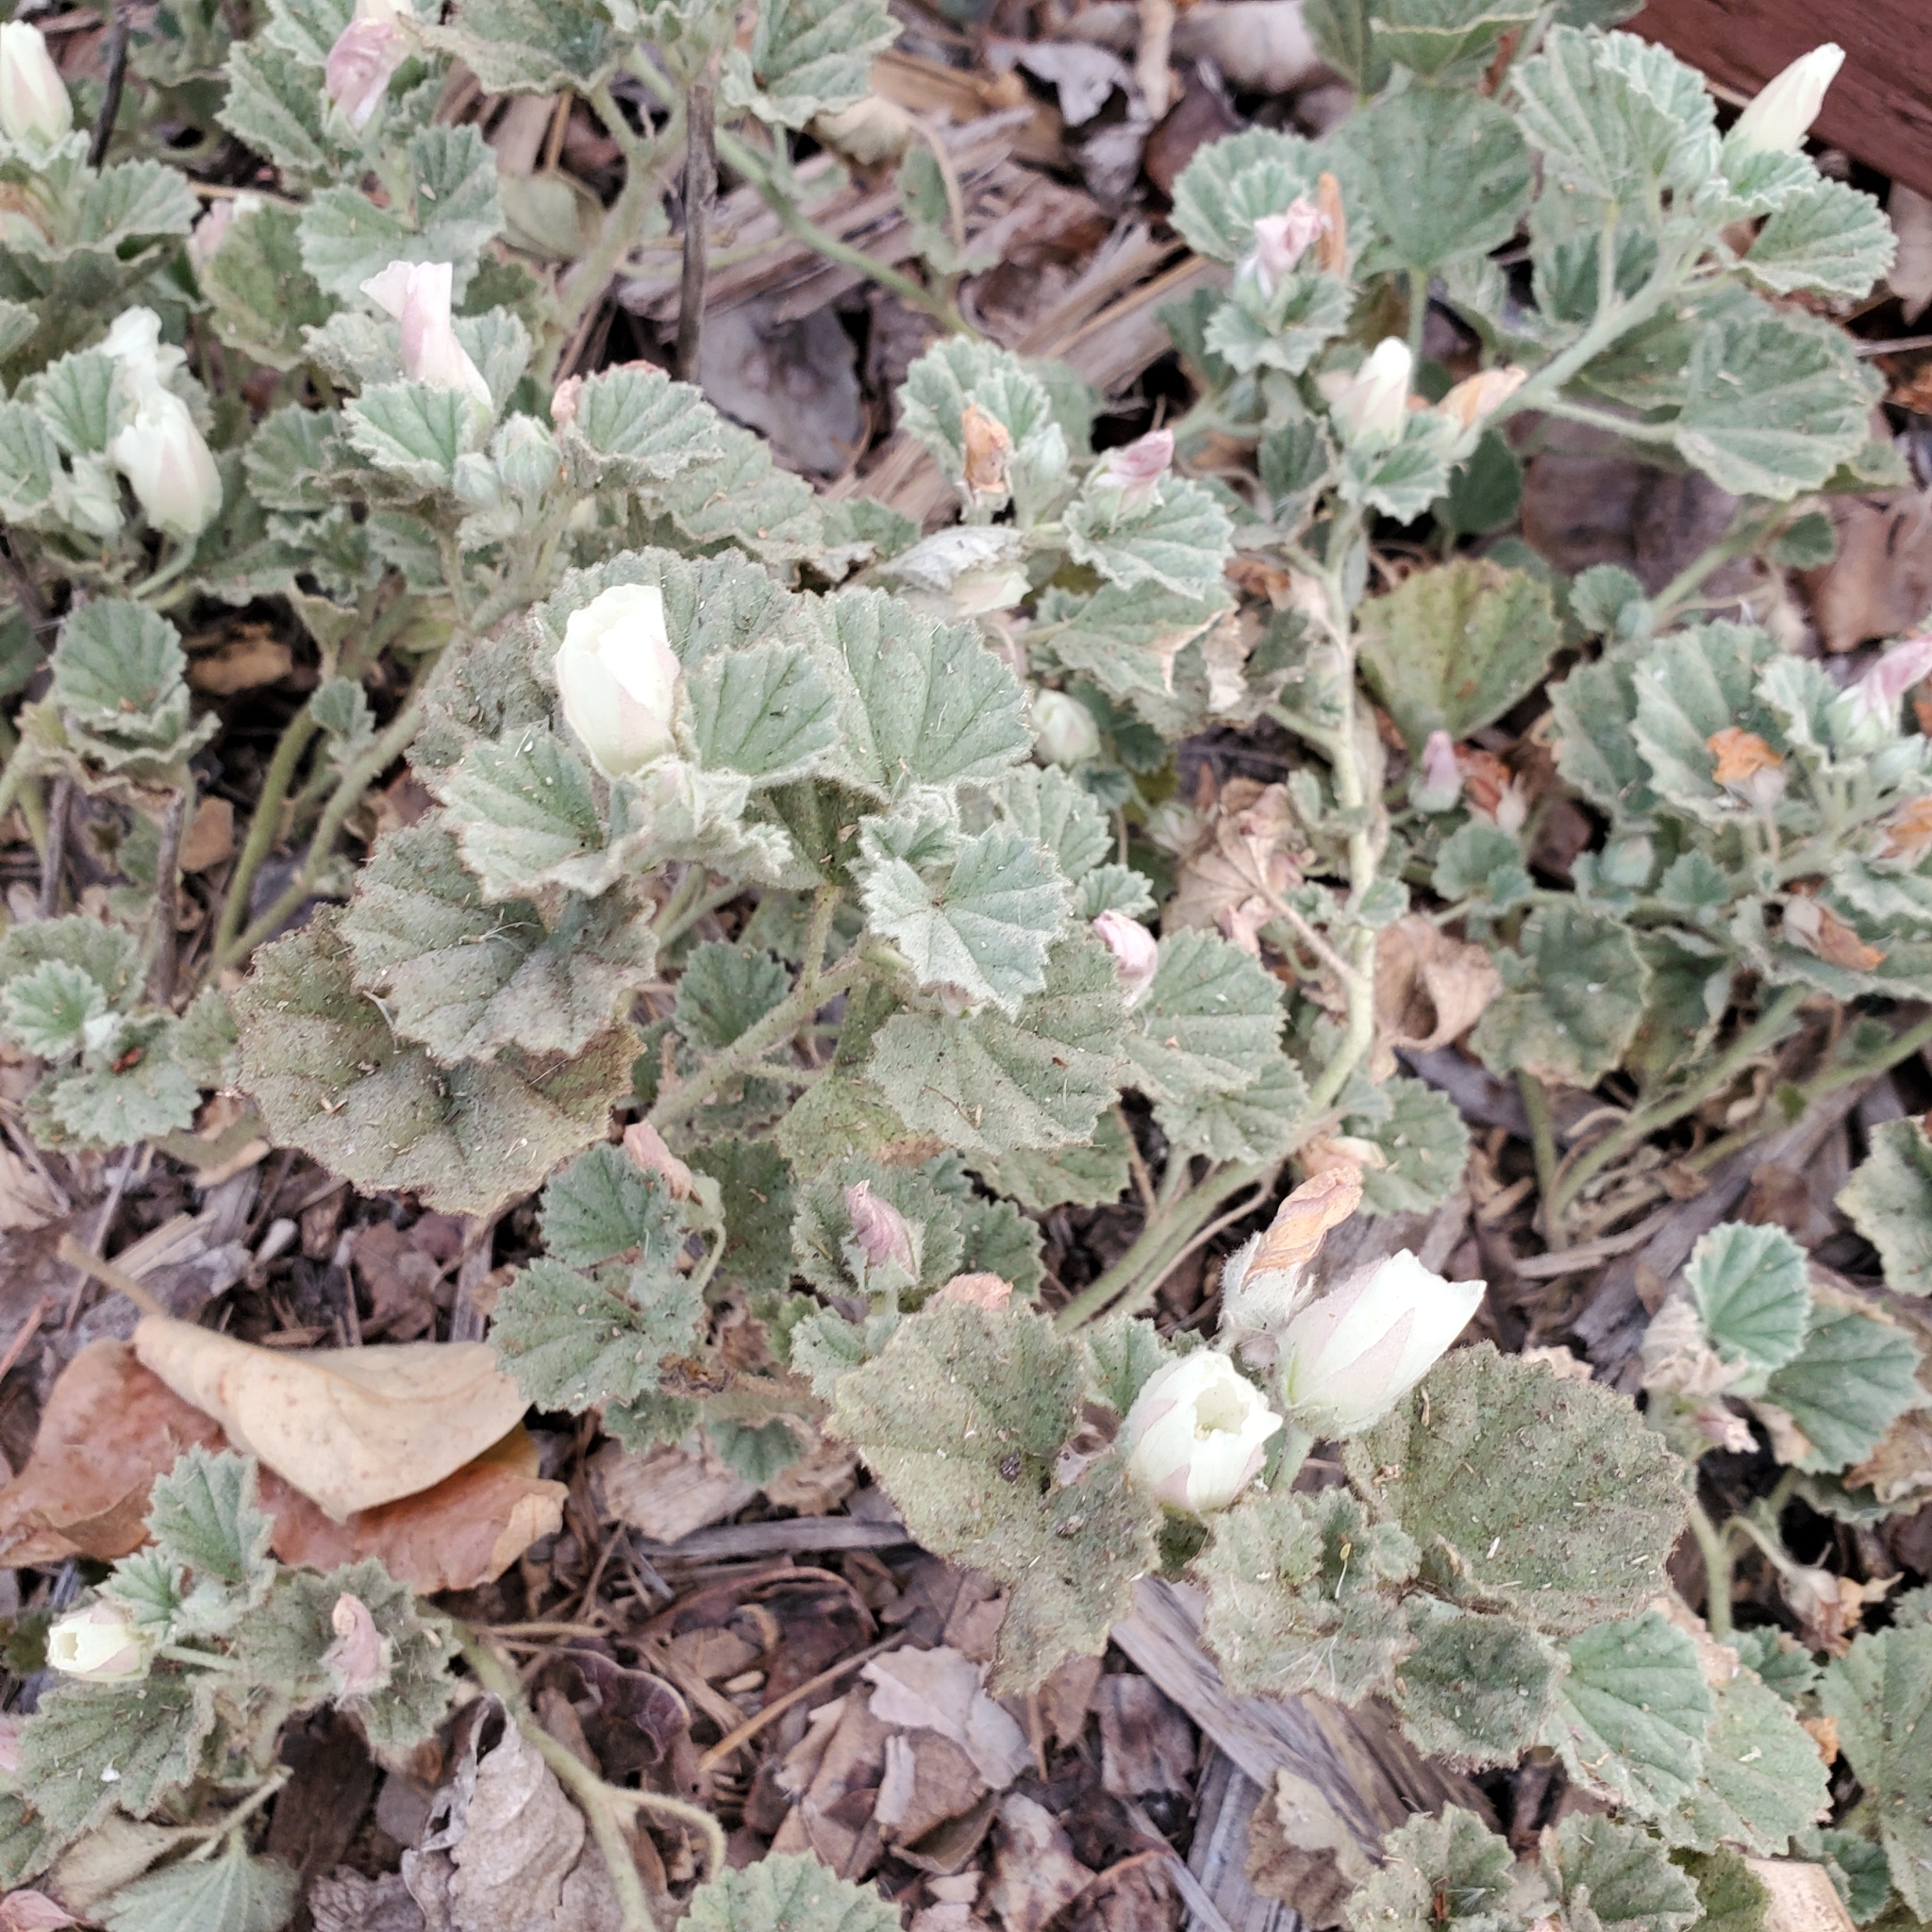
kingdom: Plantae
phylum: Tracheophyta
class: Magnoliopsida
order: Malvales
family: Malvaceae
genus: Malvella
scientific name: Malvella leprosa
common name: Alkali-mallow
